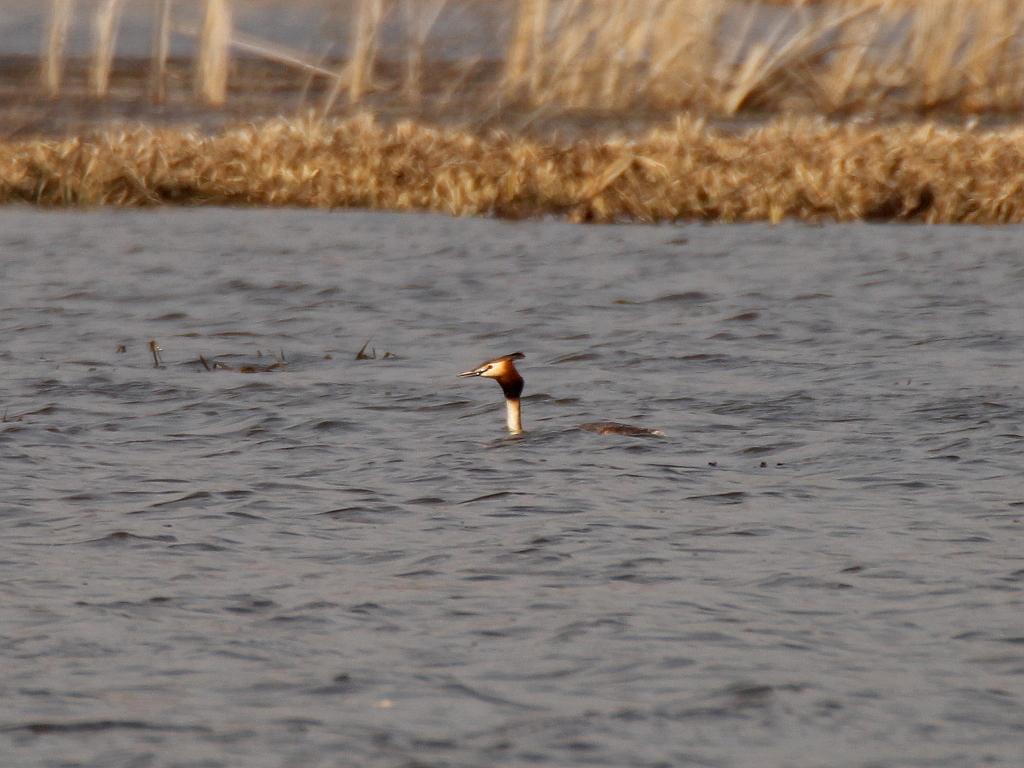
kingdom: Animalia
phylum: Chordata
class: Aves
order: Podicipediformes
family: Podicipedidae
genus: Podiceps
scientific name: Podiceps cristatus
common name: Great crested grebe
